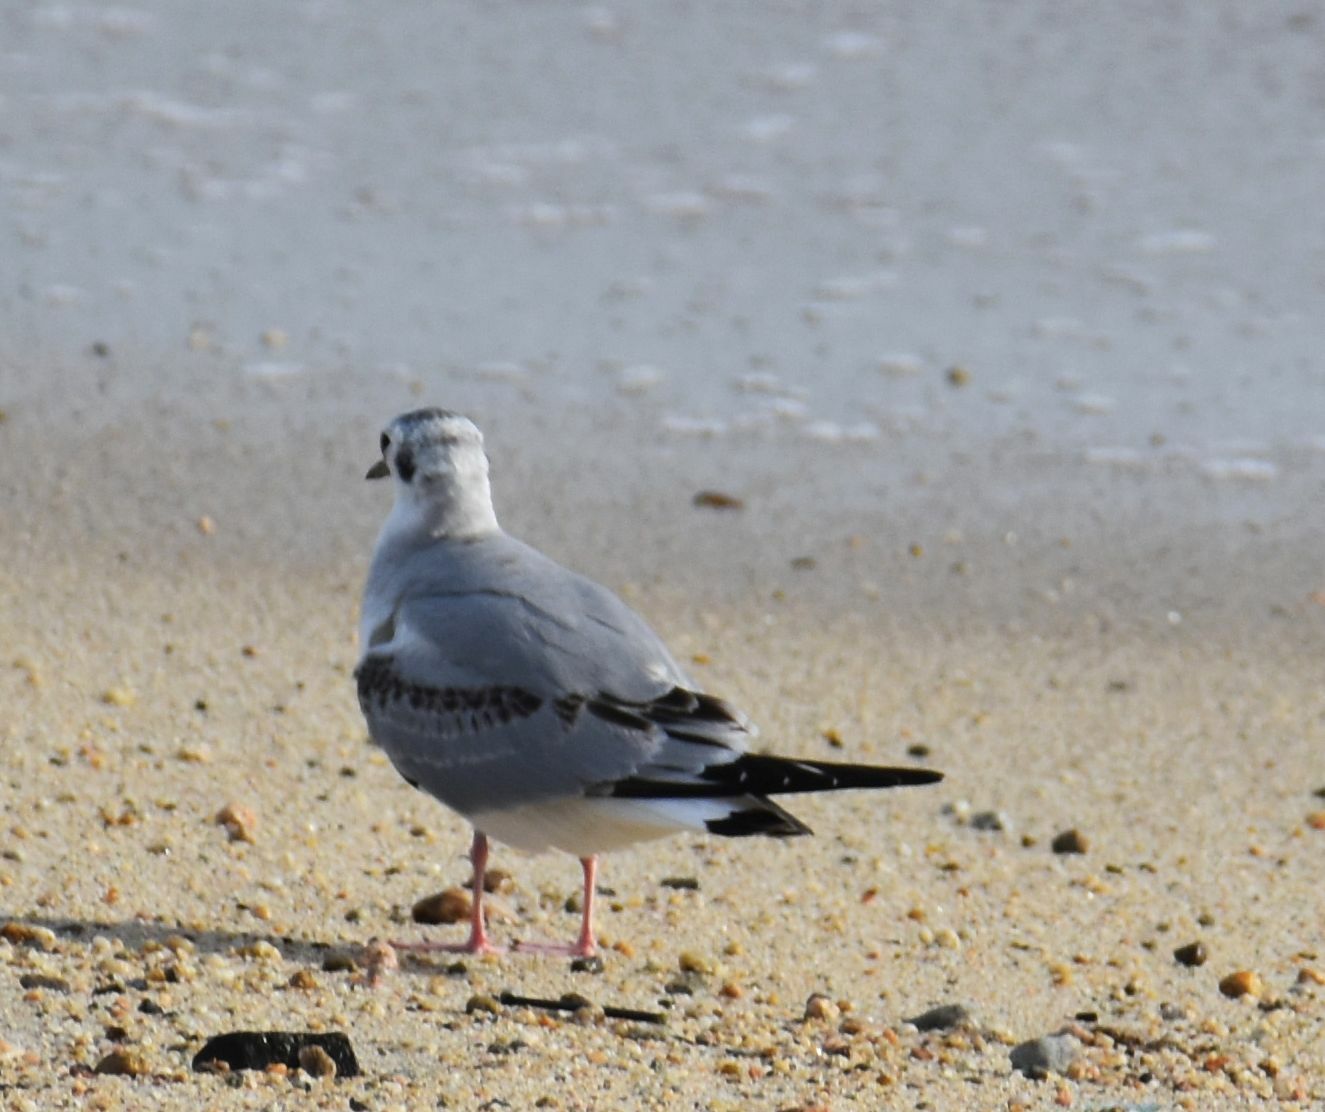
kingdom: Animalia
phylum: Chordata
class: Aves
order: Charadriiformes
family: Laridae
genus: Chroicocephalus
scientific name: Chroicocephalus philadelphia
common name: Bonaparte's gull
